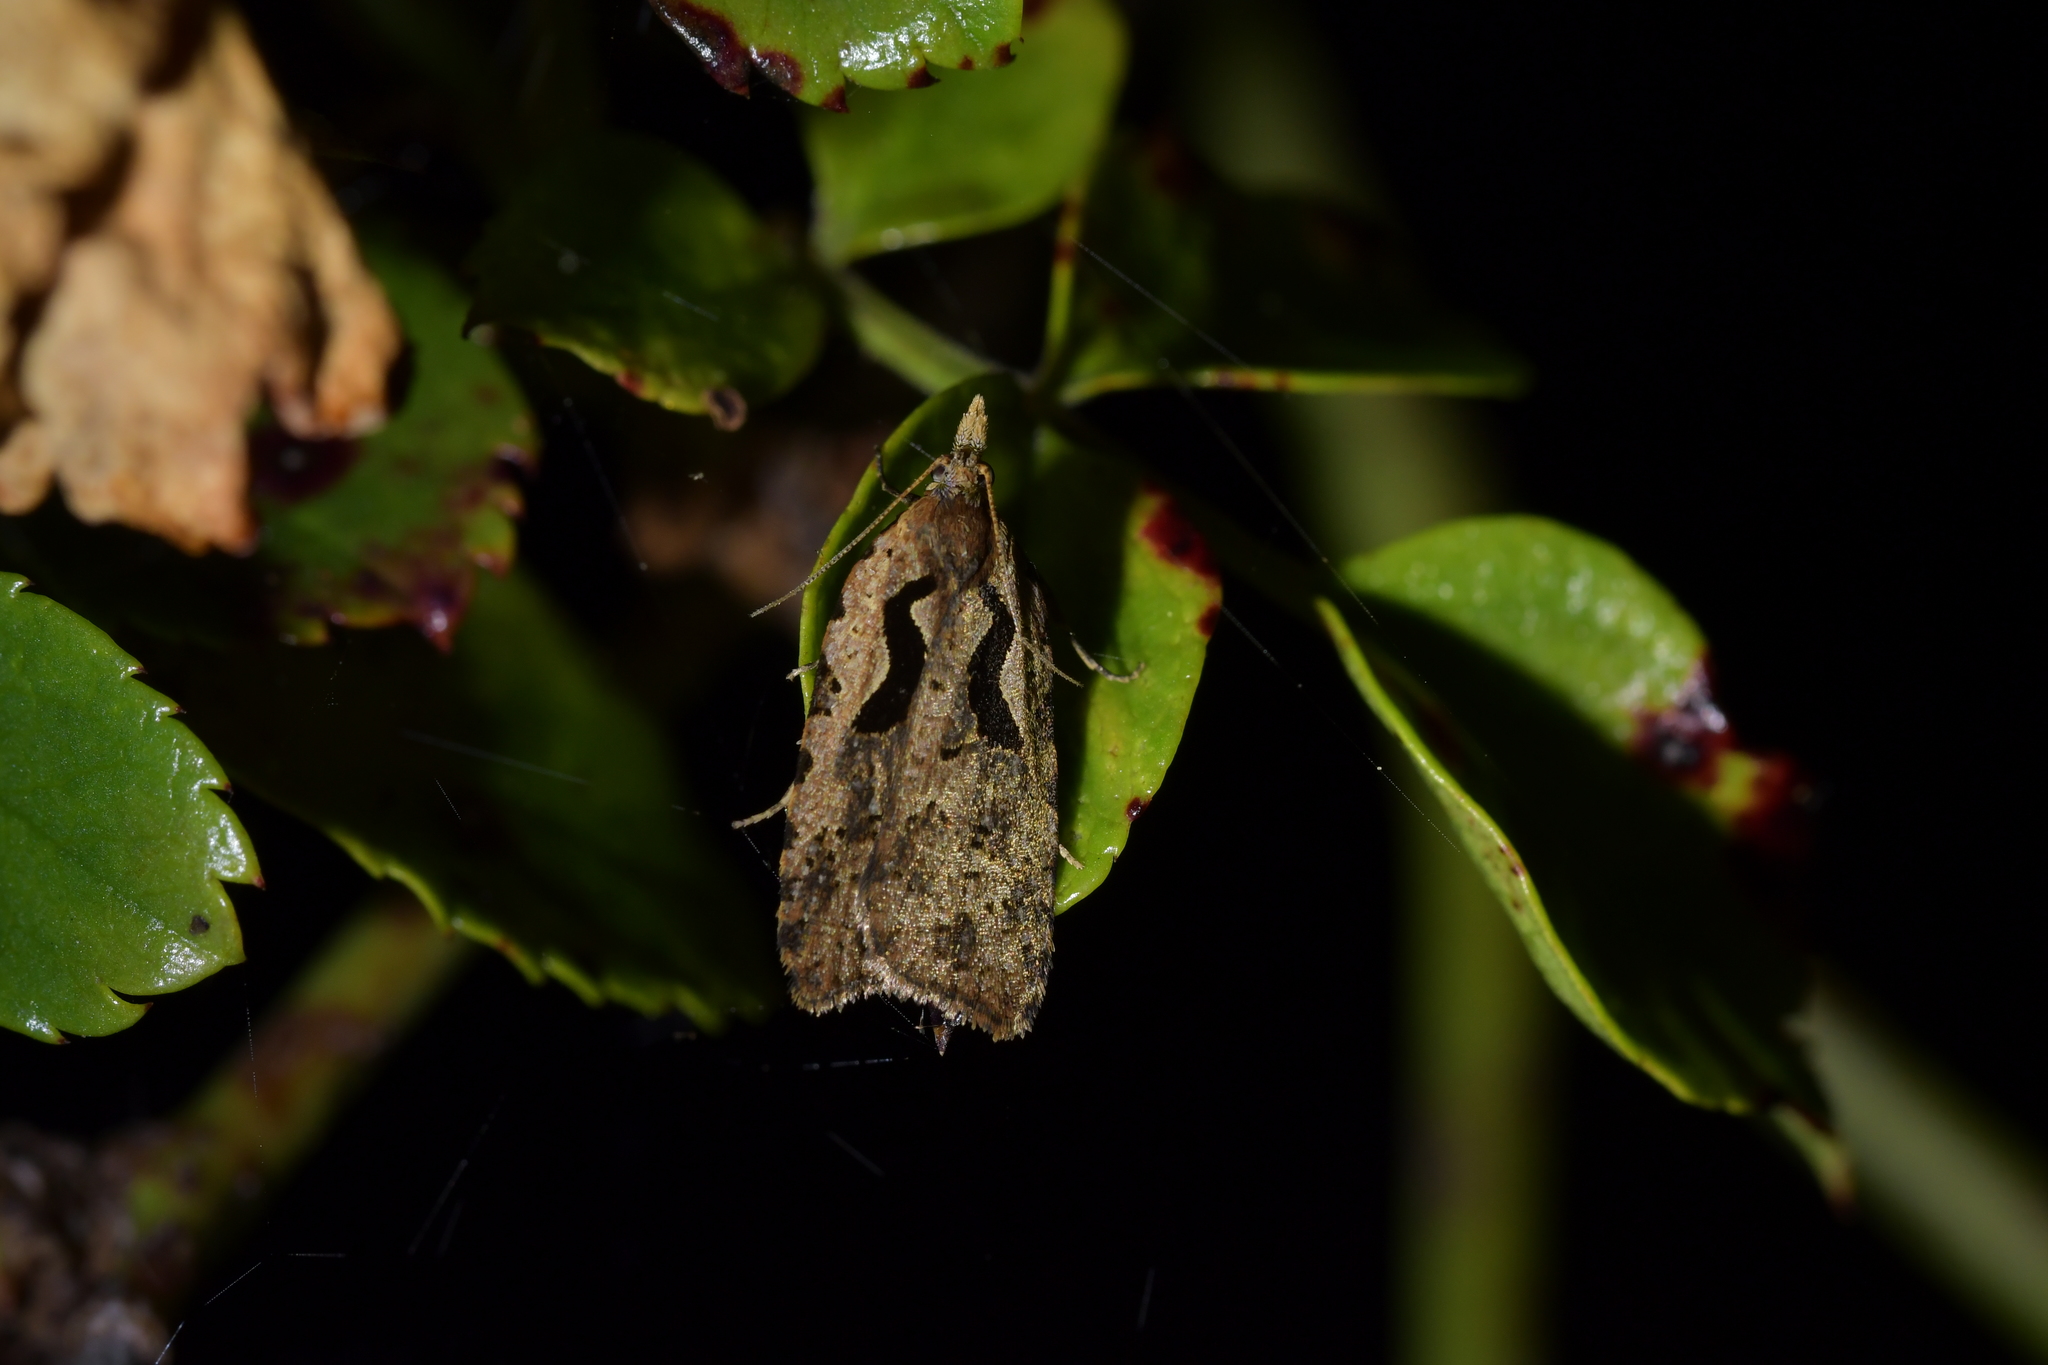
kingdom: Animalia
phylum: Arthropoda
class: Insecta
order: Lepidoptera
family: Tortricidae
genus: Cnephasia
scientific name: Cnephasia jactatana
